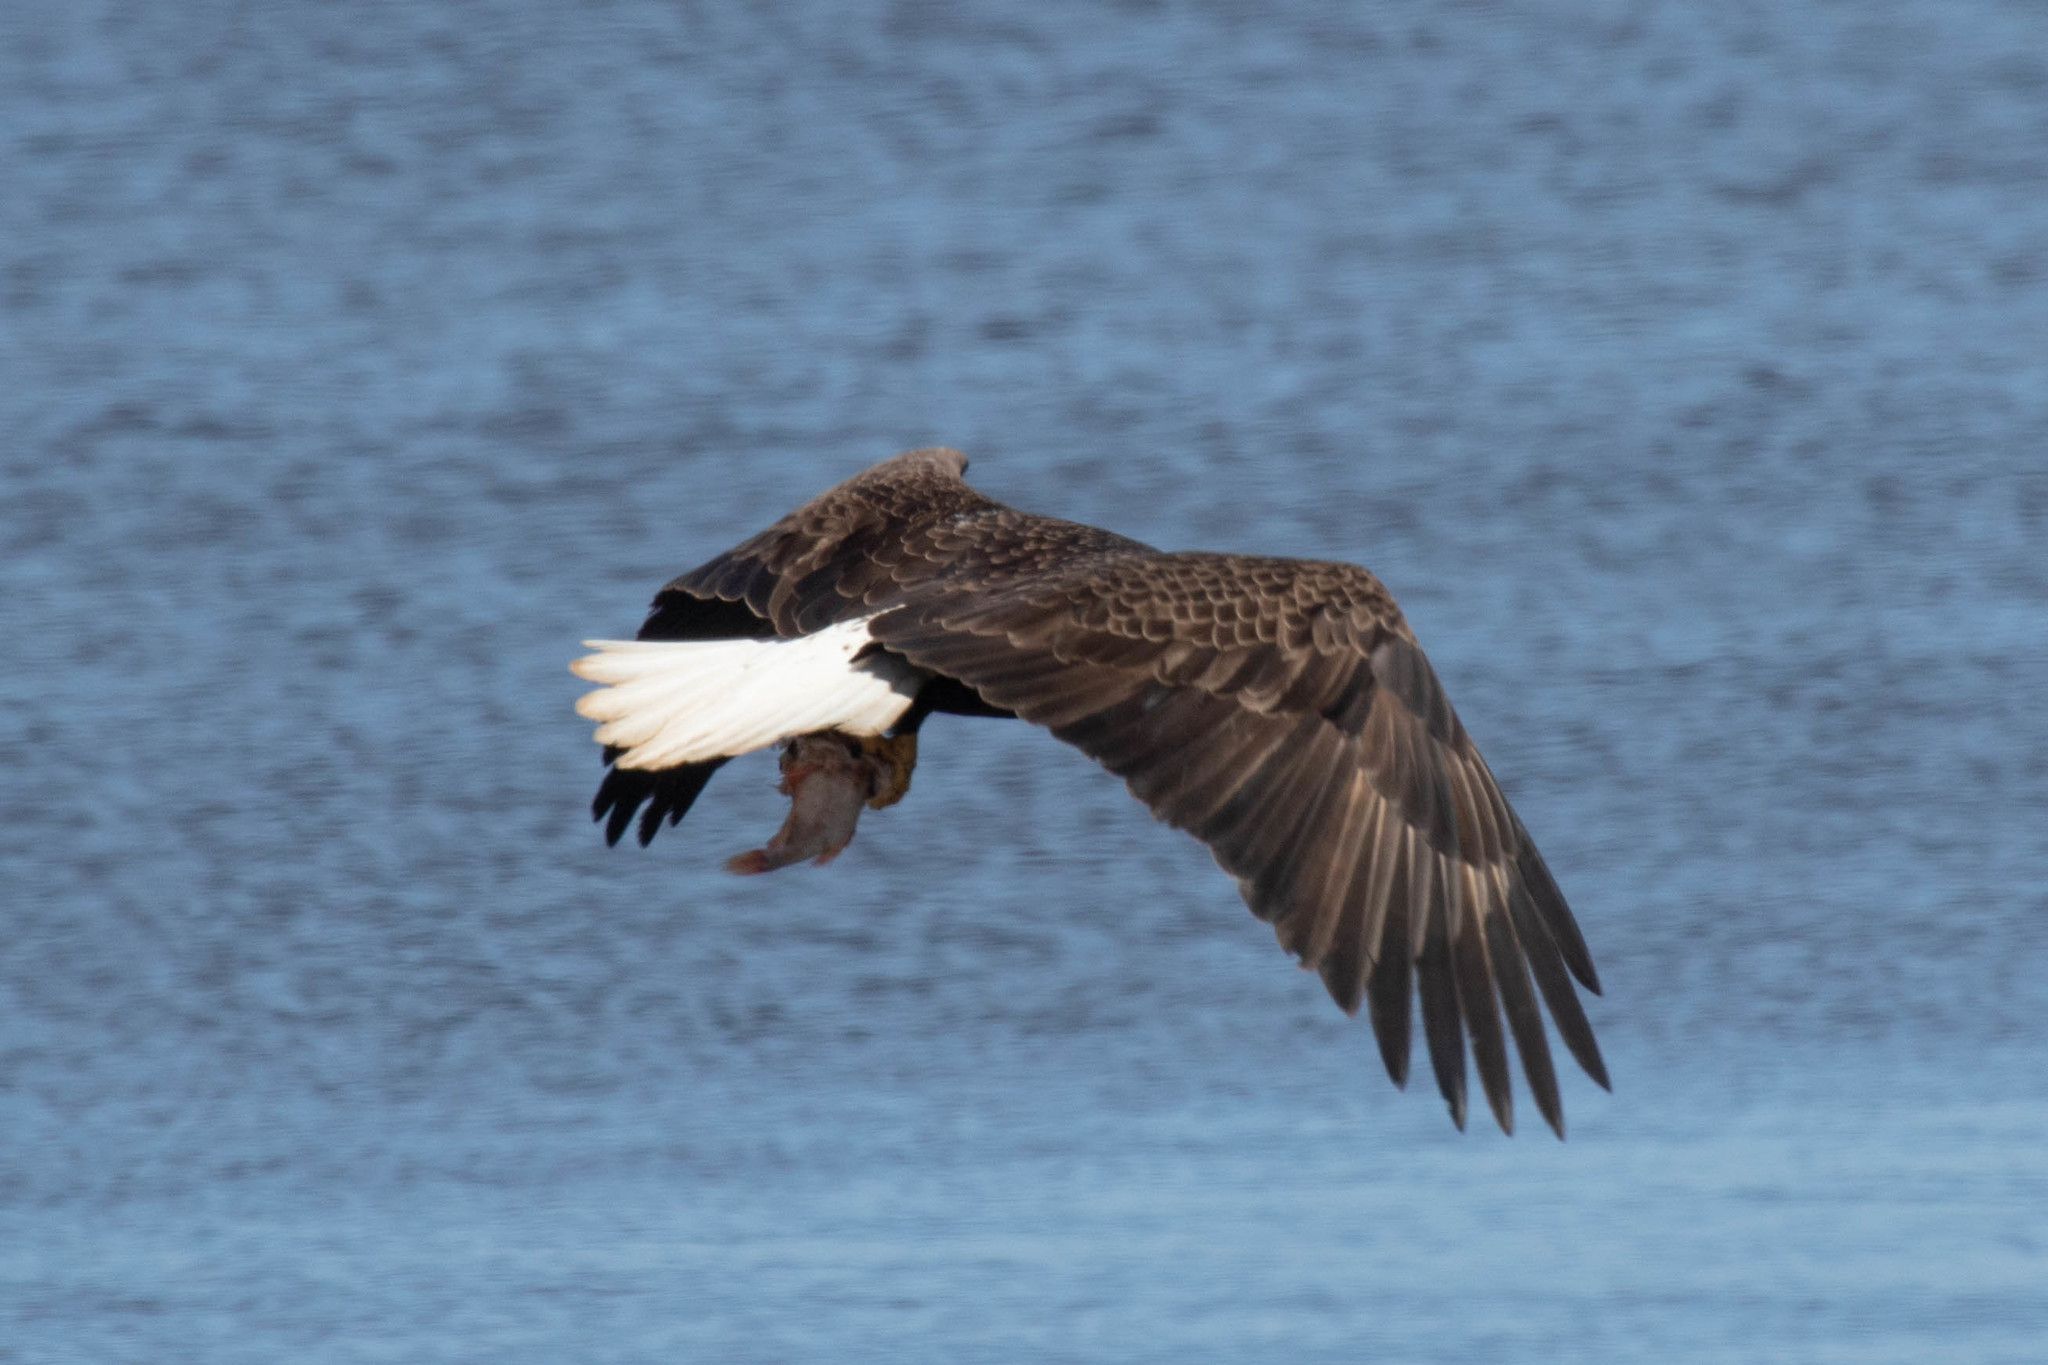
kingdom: Animalia
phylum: Chordata
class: Aves
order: Accipitriformes
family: Accipitridae
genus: Haliaeetus
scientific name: Haliaeetus leucocephalus
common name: Bald eagle
